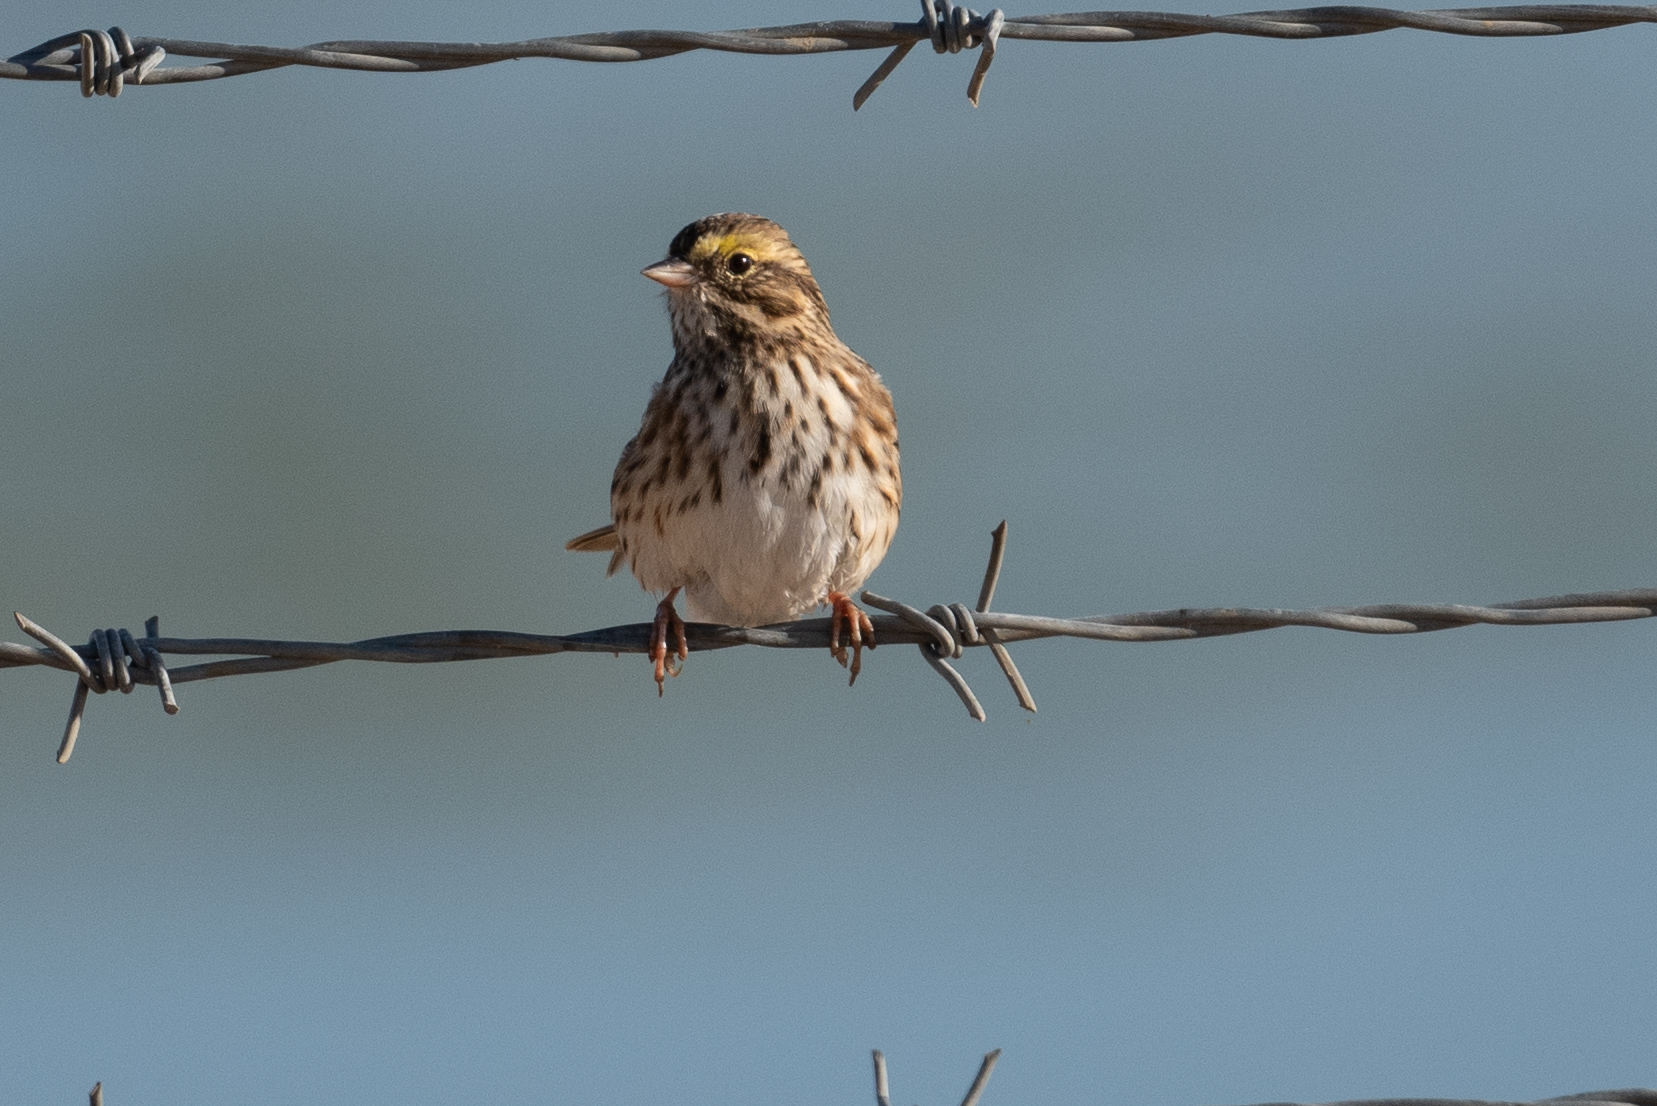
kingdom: Animalia
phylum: Chordata
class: Aves
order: Passeriformes
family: Passerellidae
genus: Passerculus
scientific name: Passerculus sandwichensis
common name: Savannah sparrow
